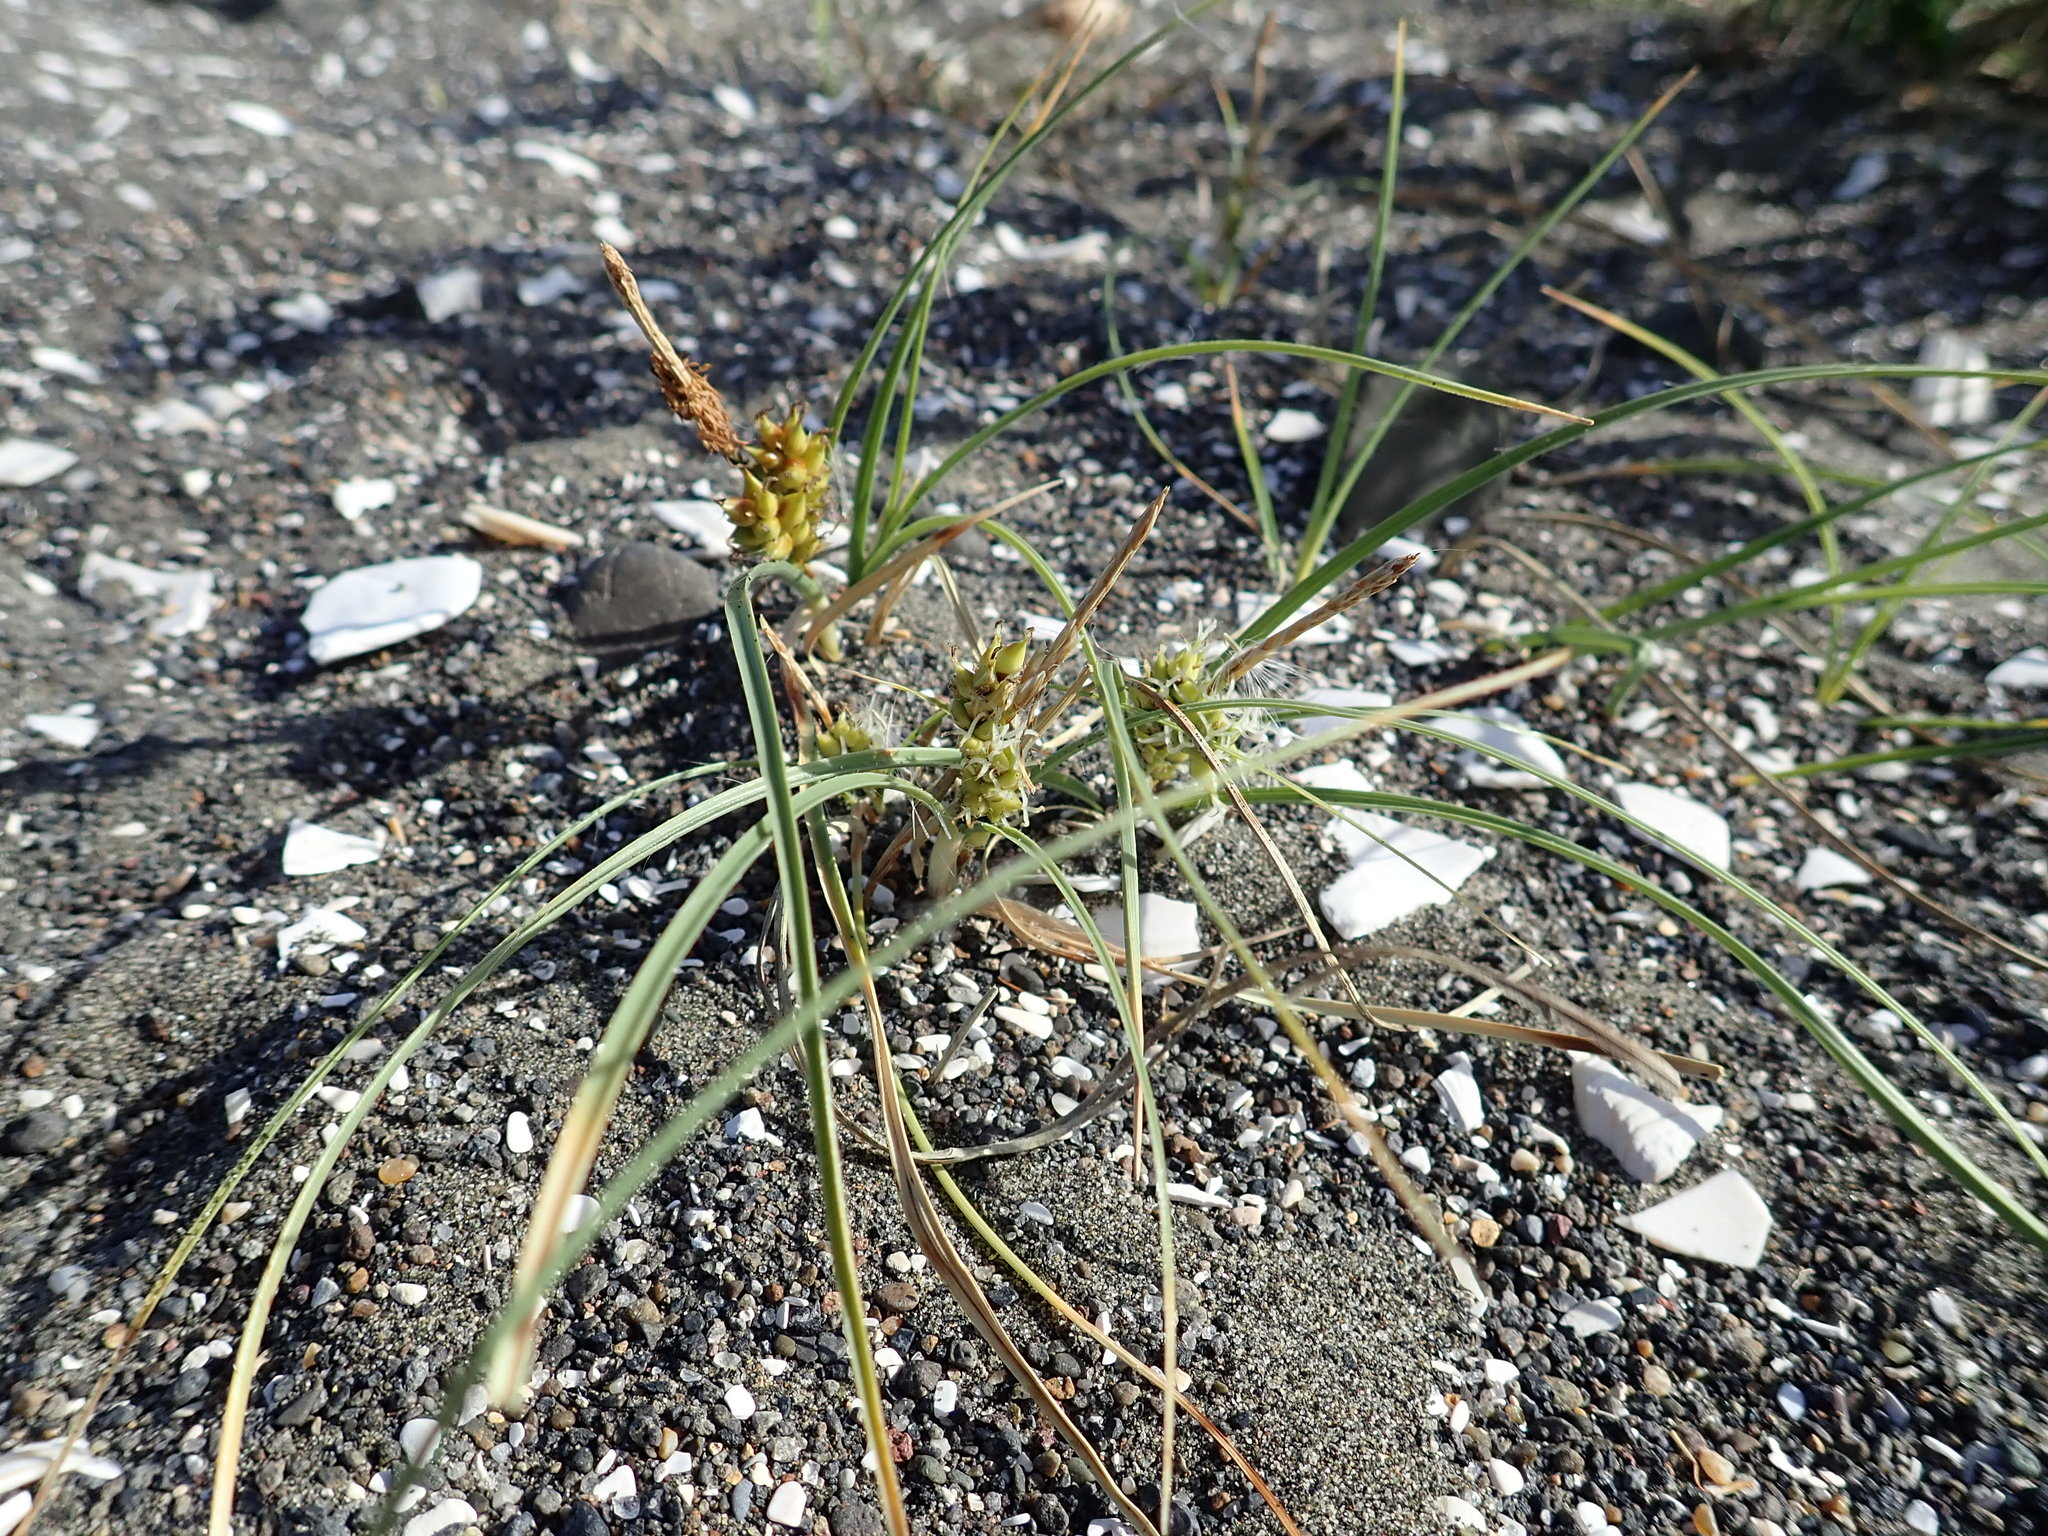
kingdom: Plantae
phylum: Tracheophyta
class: Liliopsida
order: Poales
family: Cyperaceae
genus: Carex
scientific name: Carex pumila
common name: Dwarf sedge
